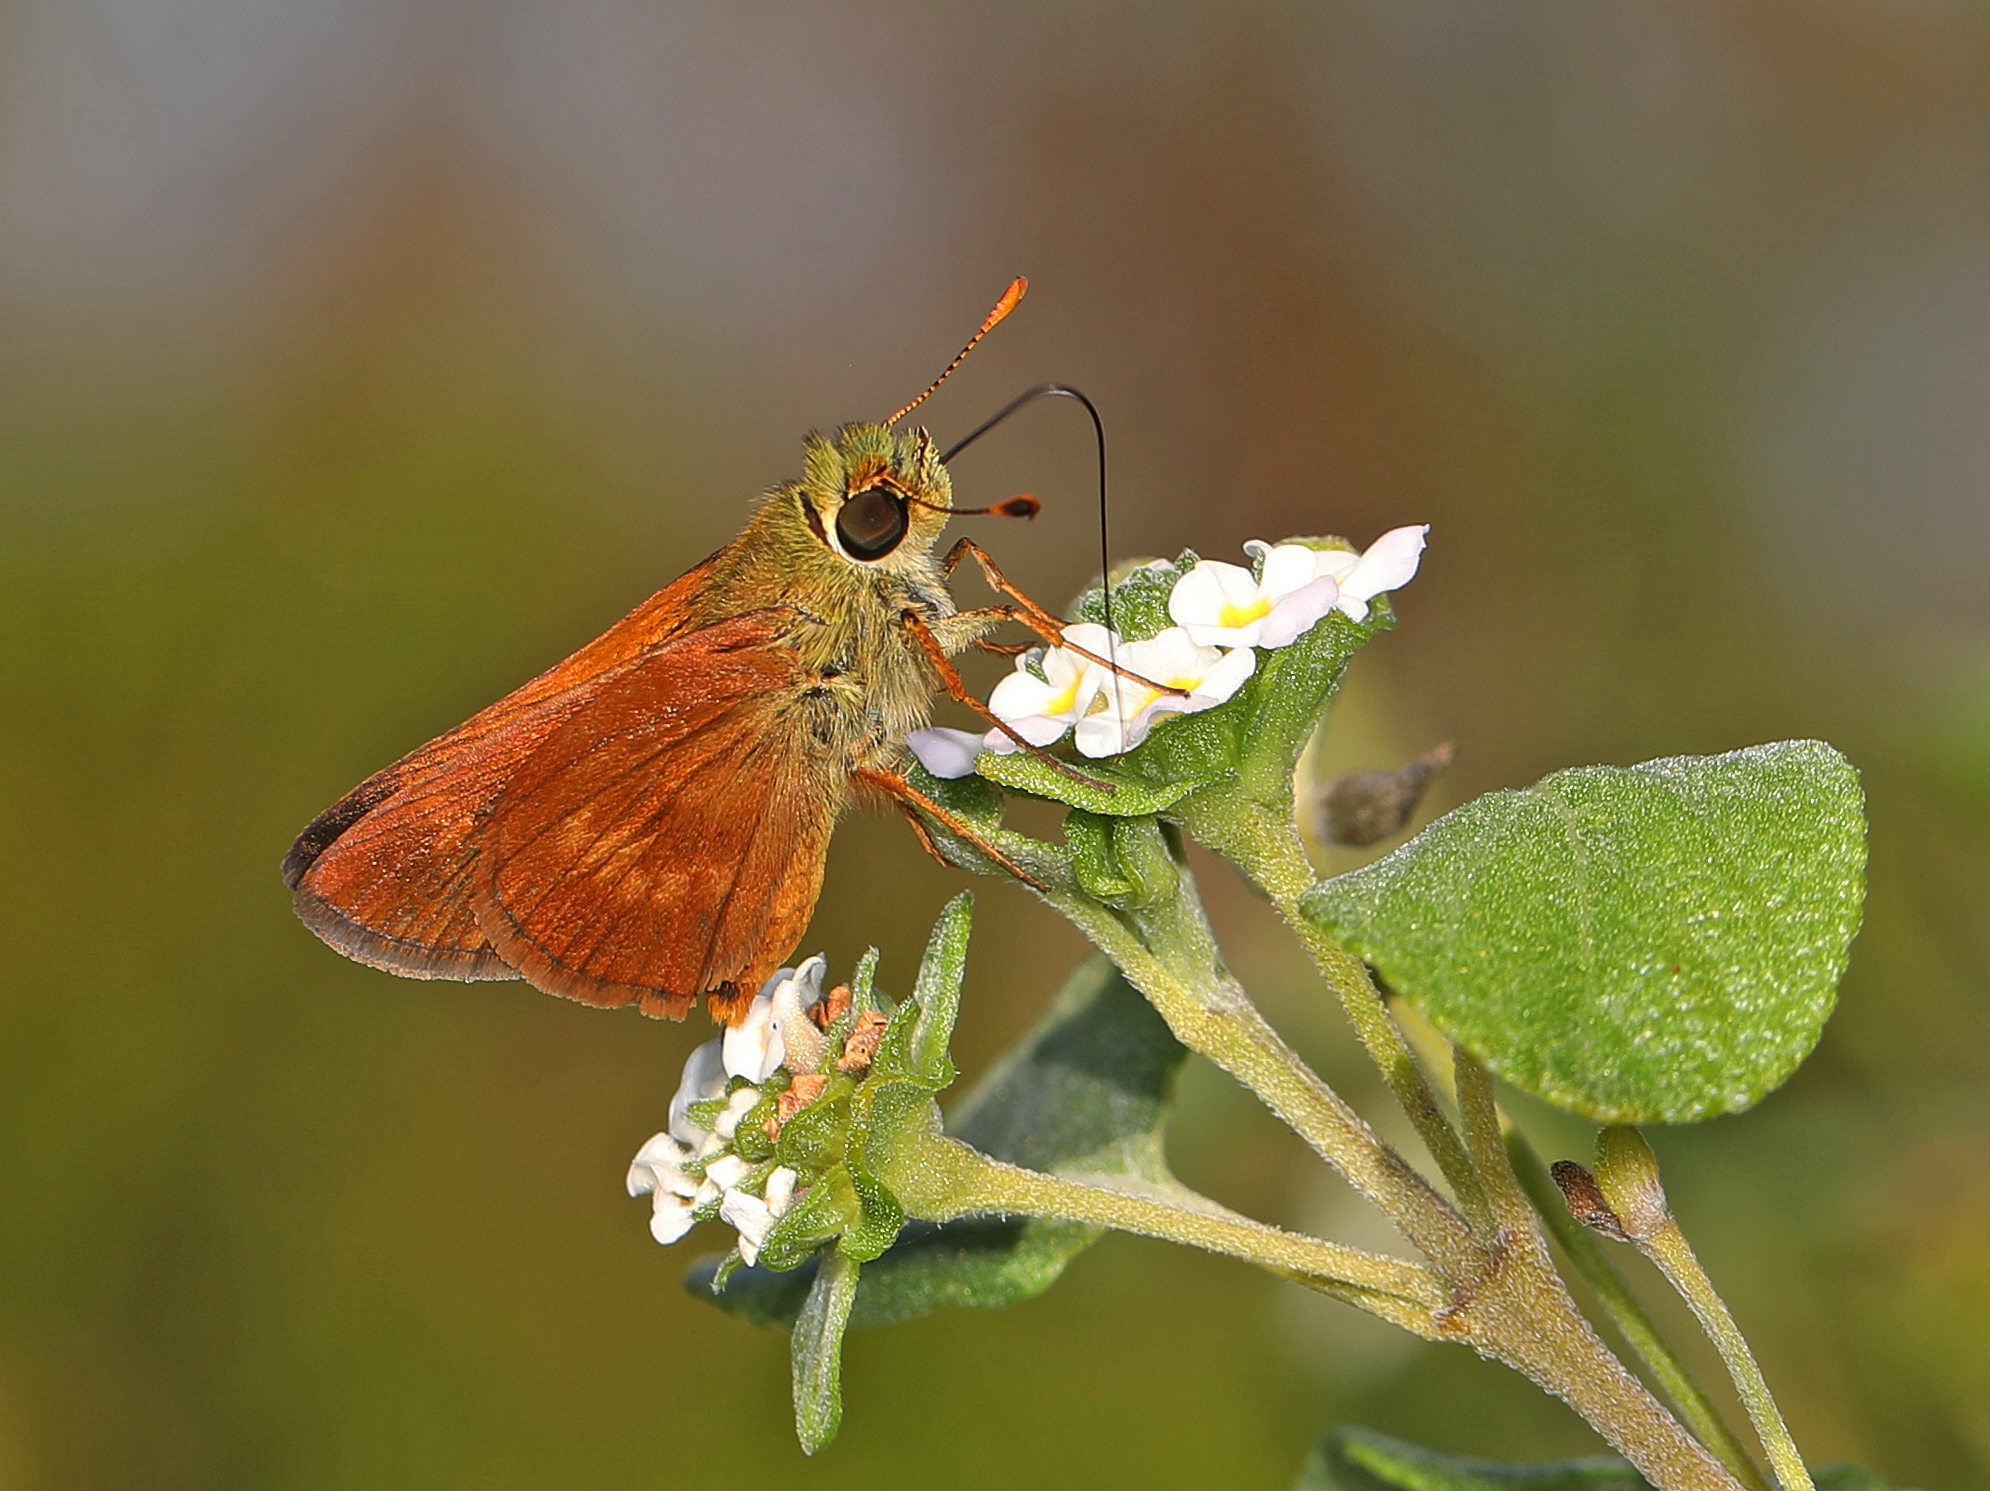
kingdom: Animalia
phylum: Arthropoda
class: Insecta
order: Lepidoptera
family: Hesperiidae
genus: Polites
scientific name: Polites otho
